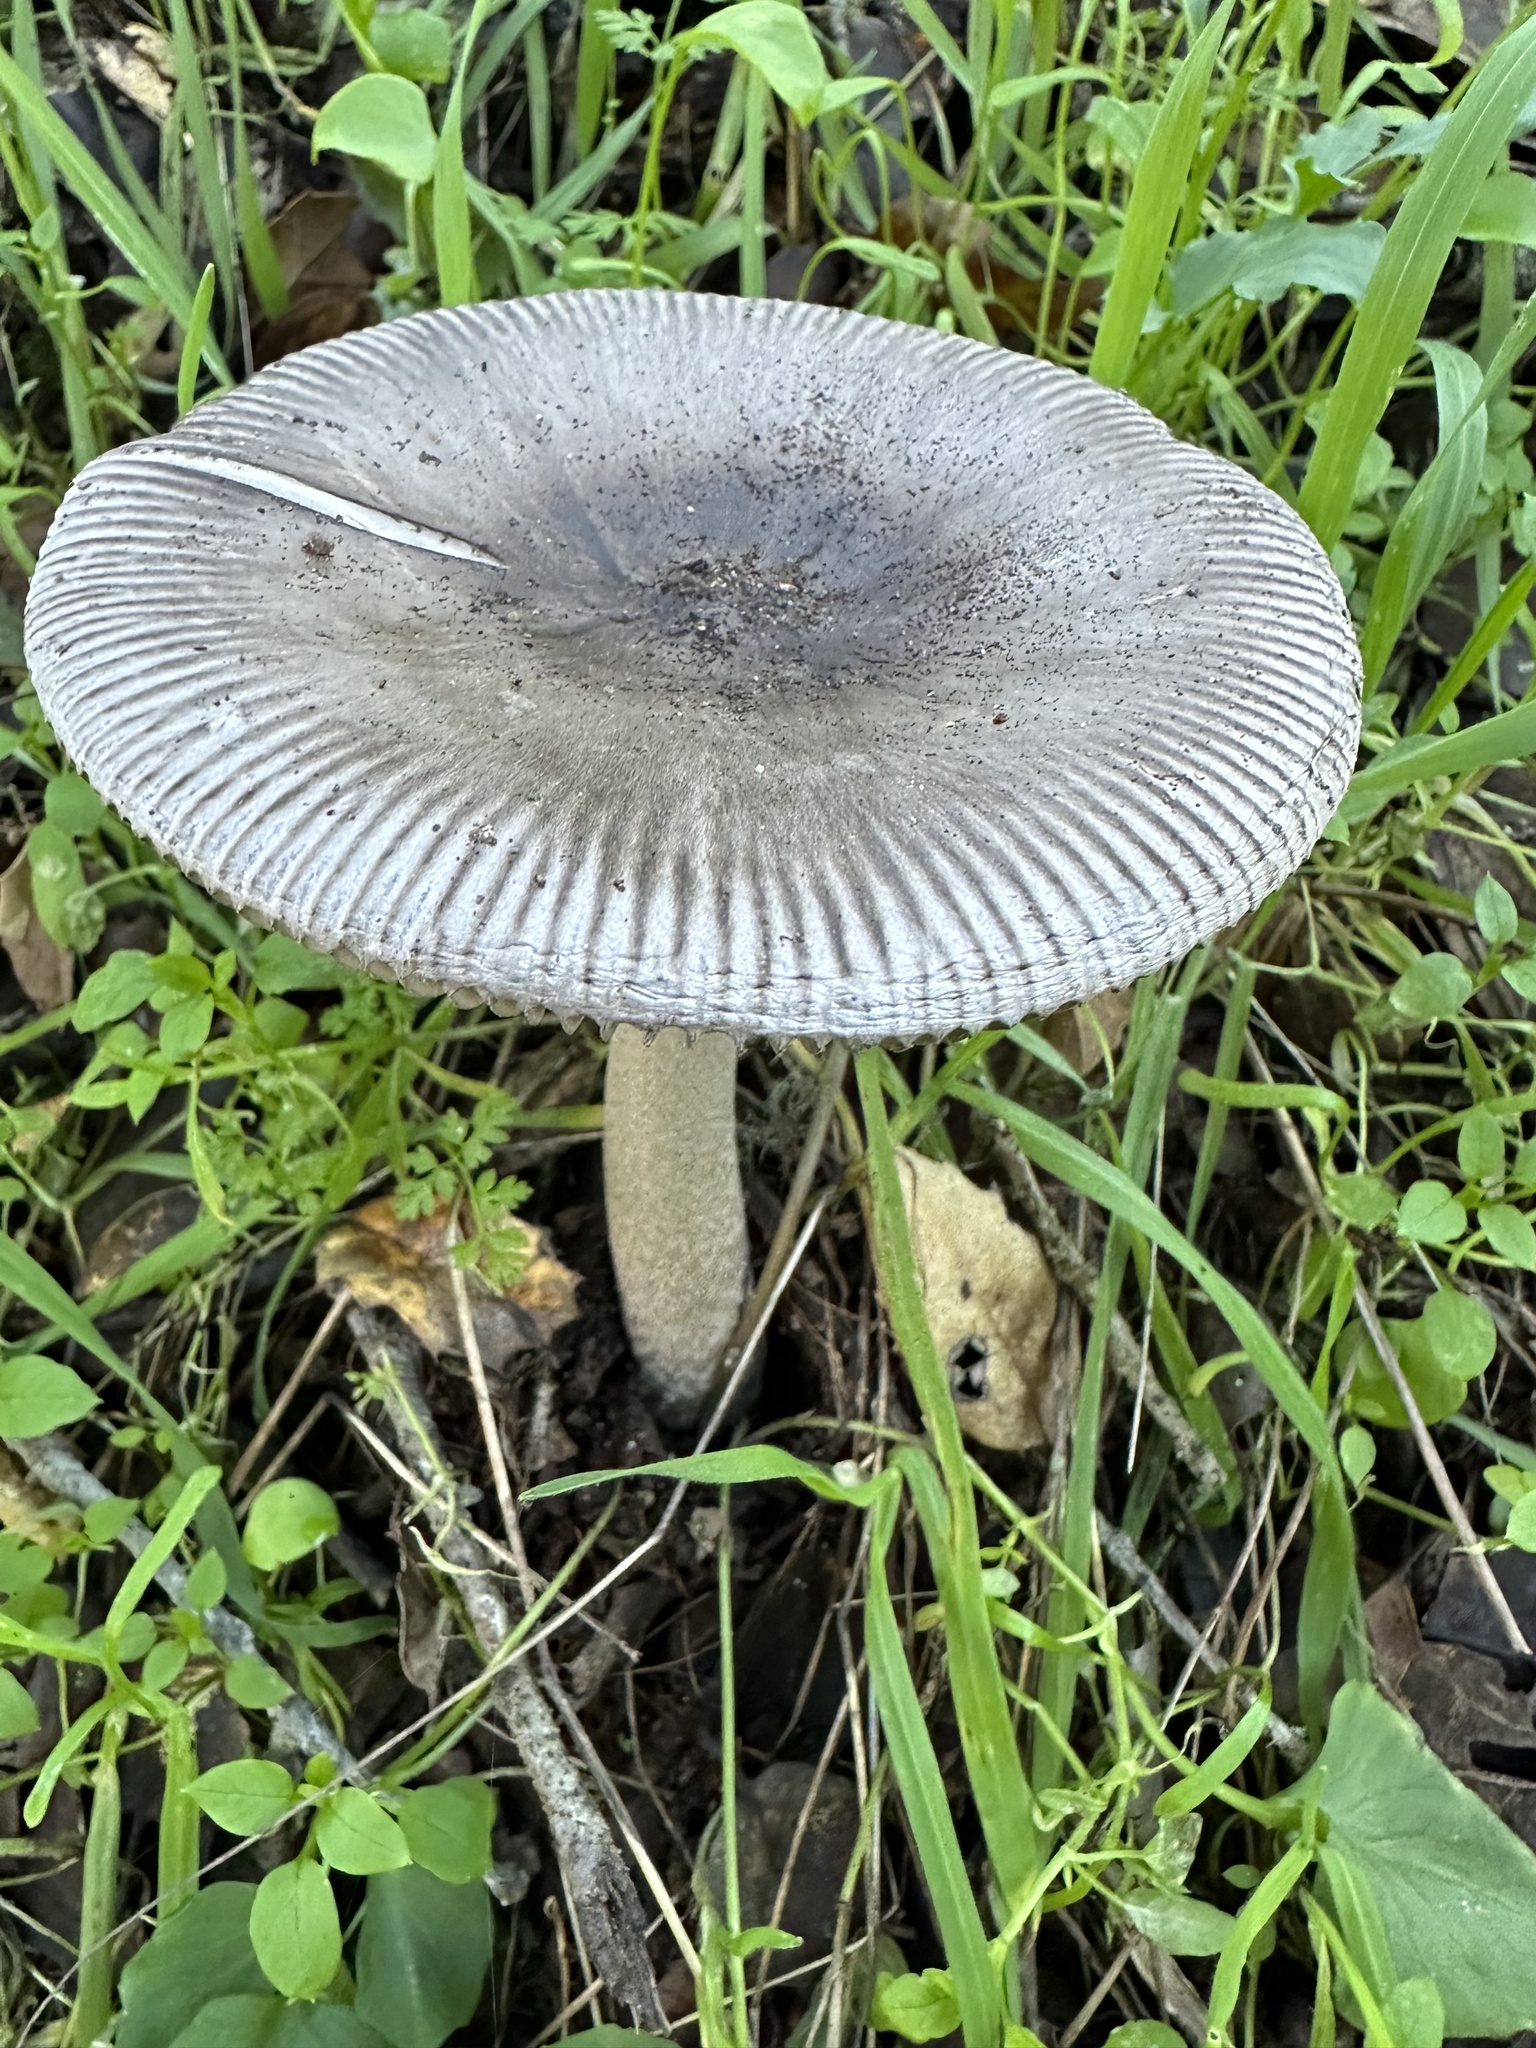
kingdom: Fungi
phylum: Basidiomycota
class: Agaricomycetes
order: Agaricales
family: Amanitaceae
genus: Amanita
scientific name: Amanita constricta
